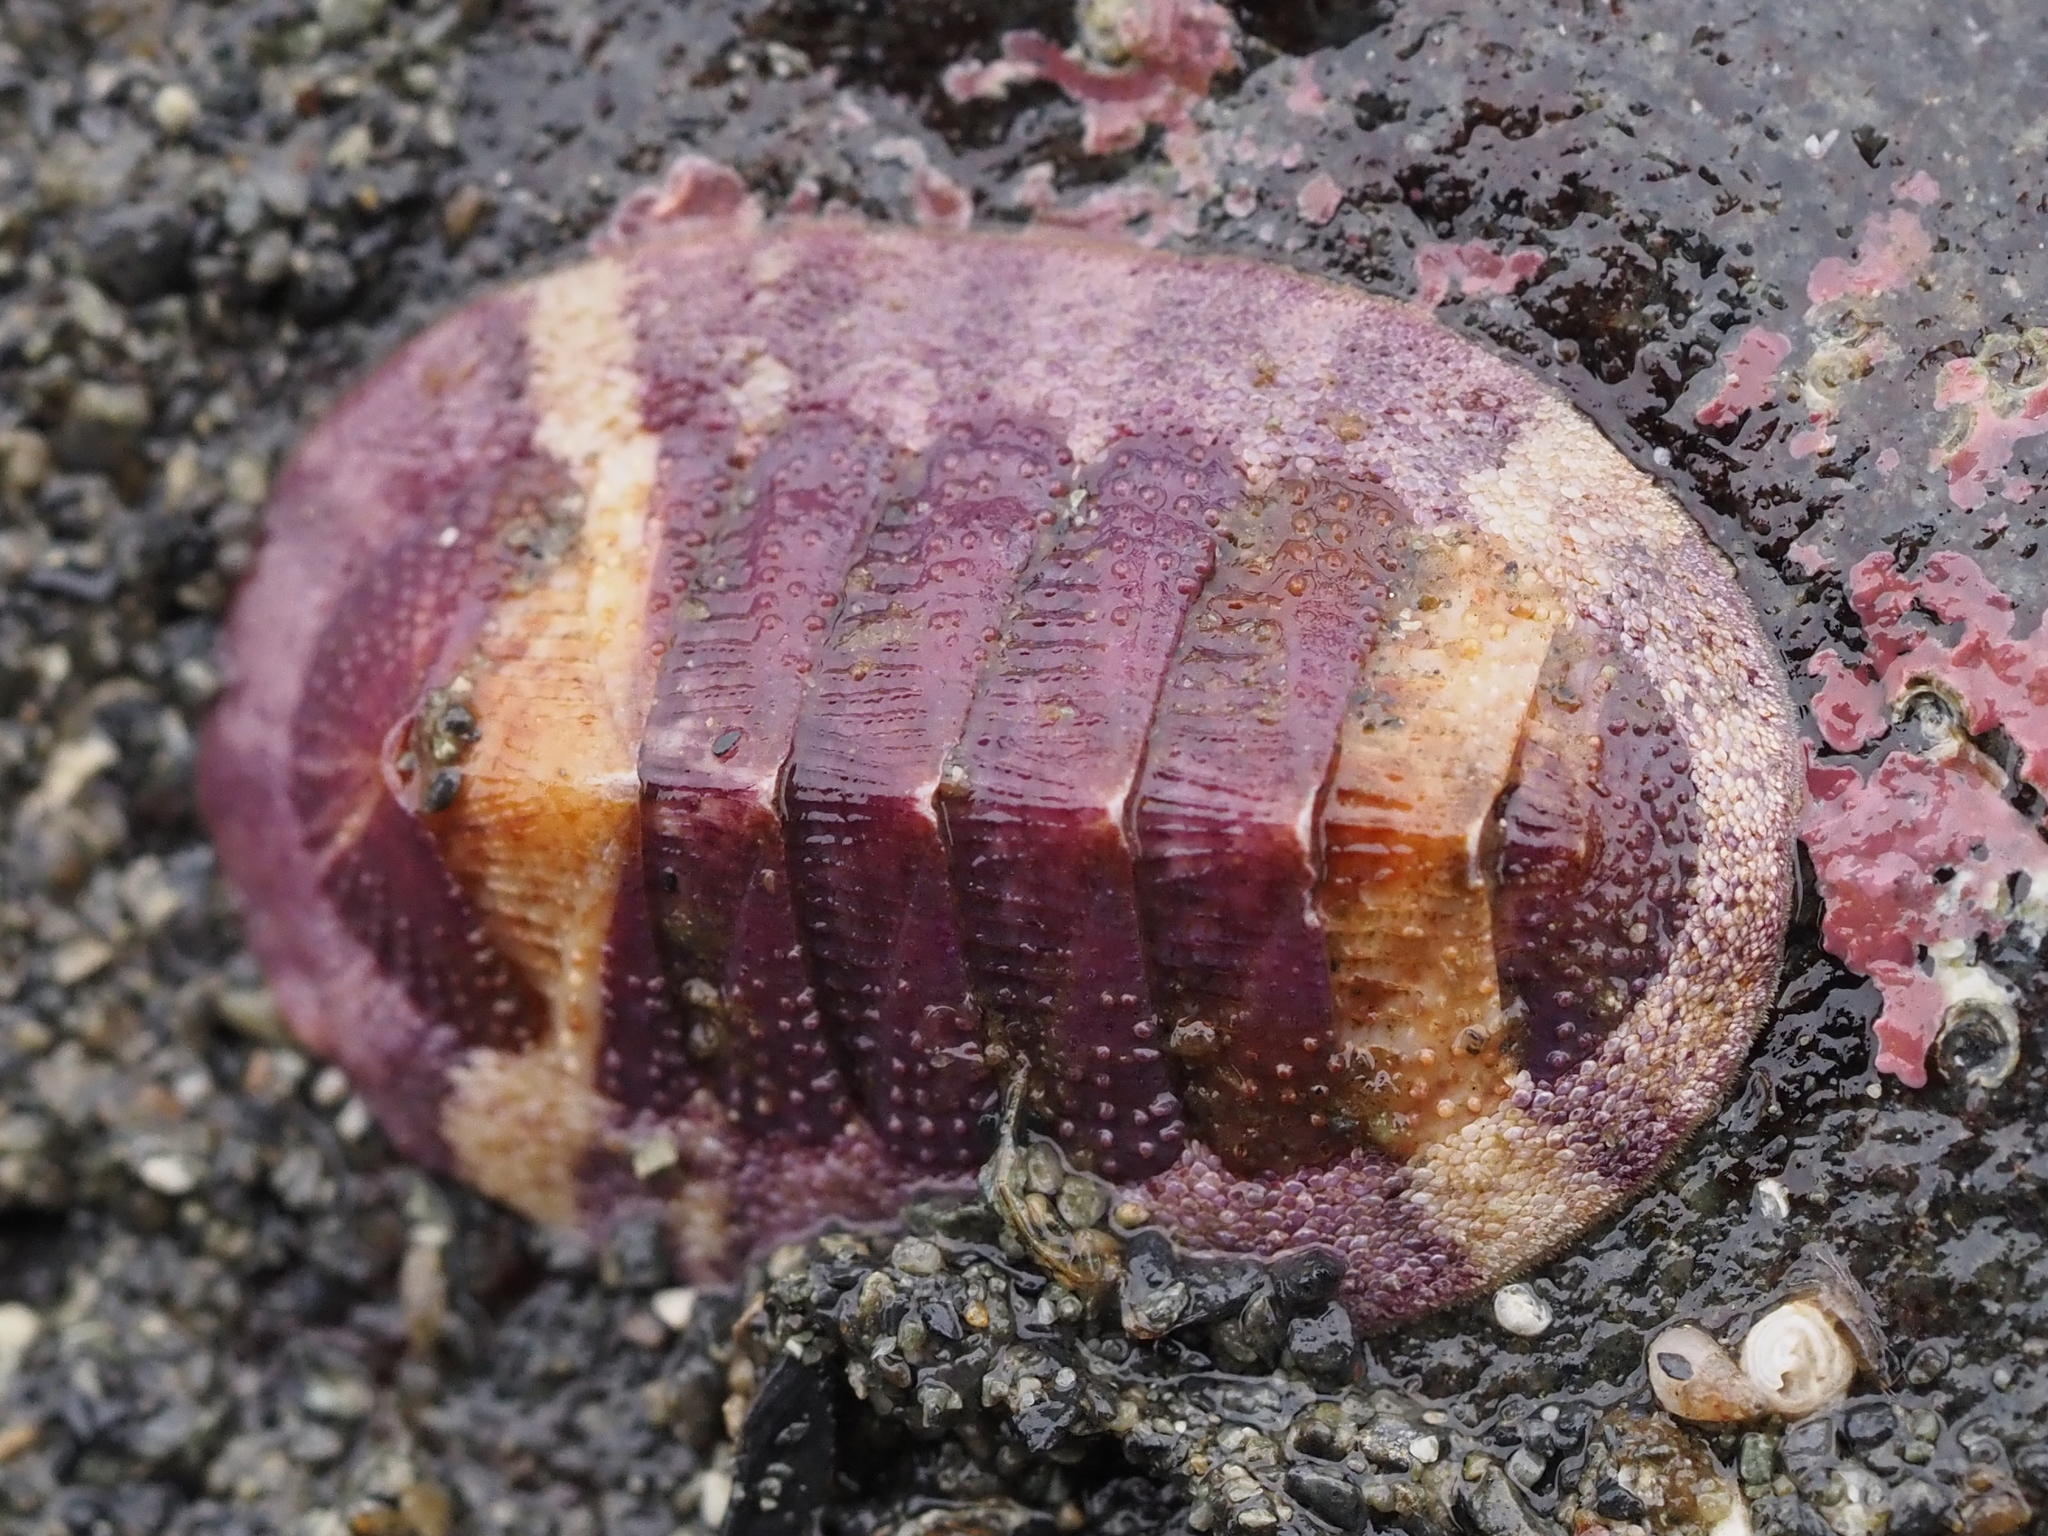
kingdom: Animalia
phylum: Mollusca
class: Polyplacophora
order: Chitonida
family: Ischnochitonidae
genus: Lepidozona
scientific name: Lepidozona mertensii
